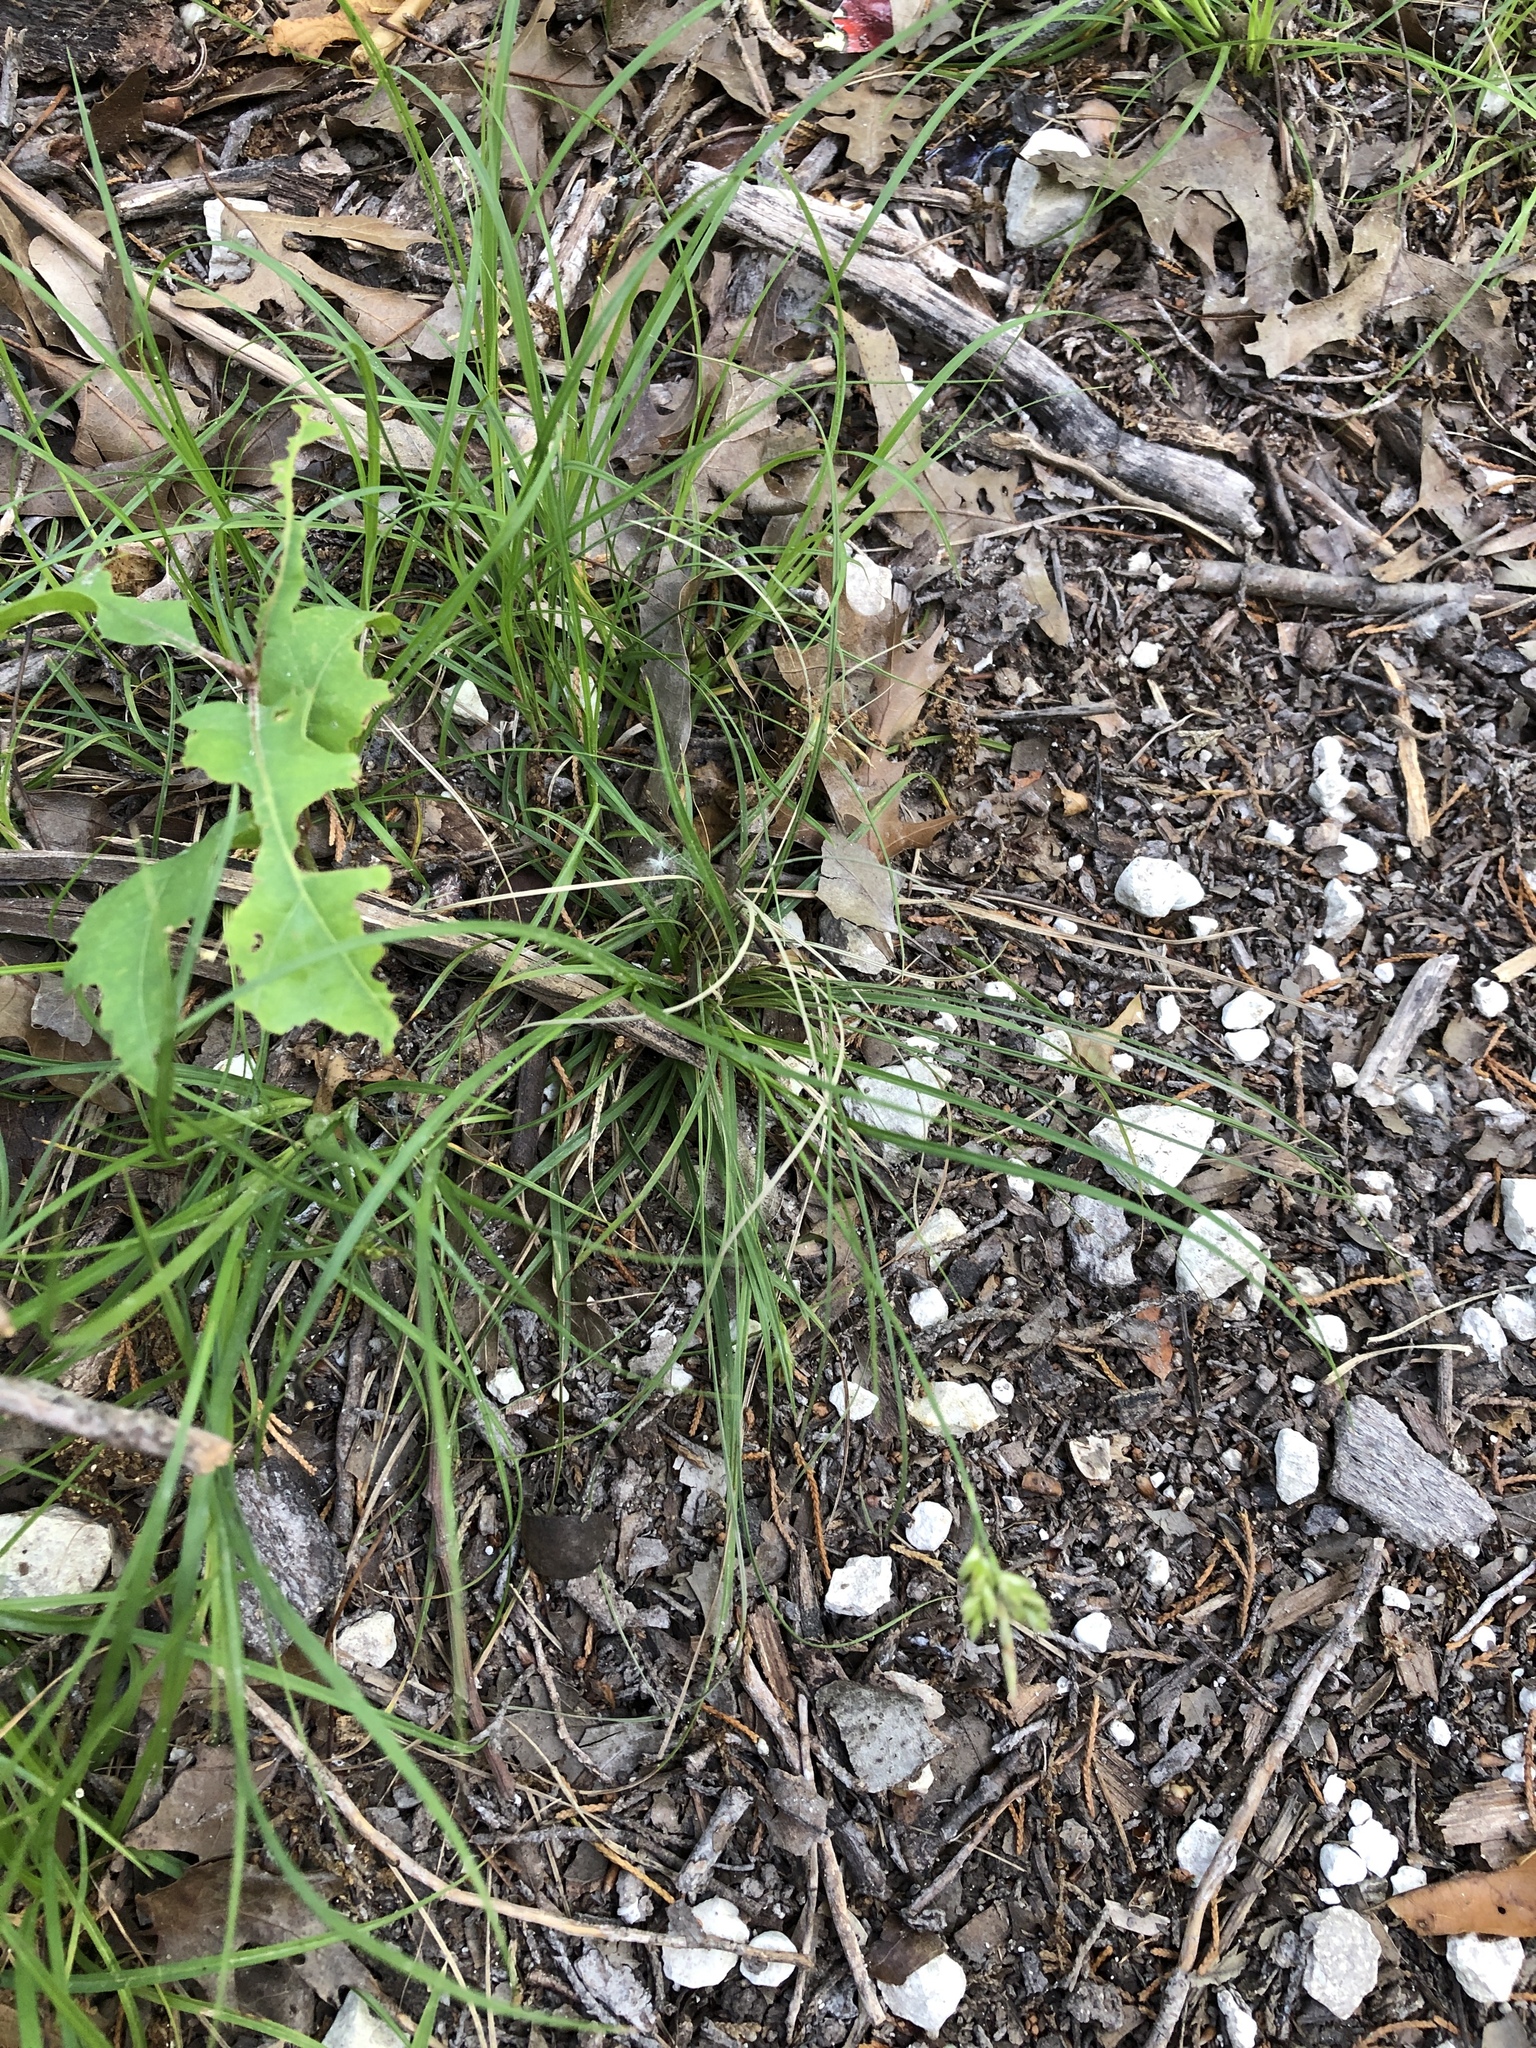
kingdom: Plantae
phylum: Tracheophyta
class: Liliopsida
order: Poales
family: Cyperaceae
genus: Carex
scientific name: Carex planostachys
